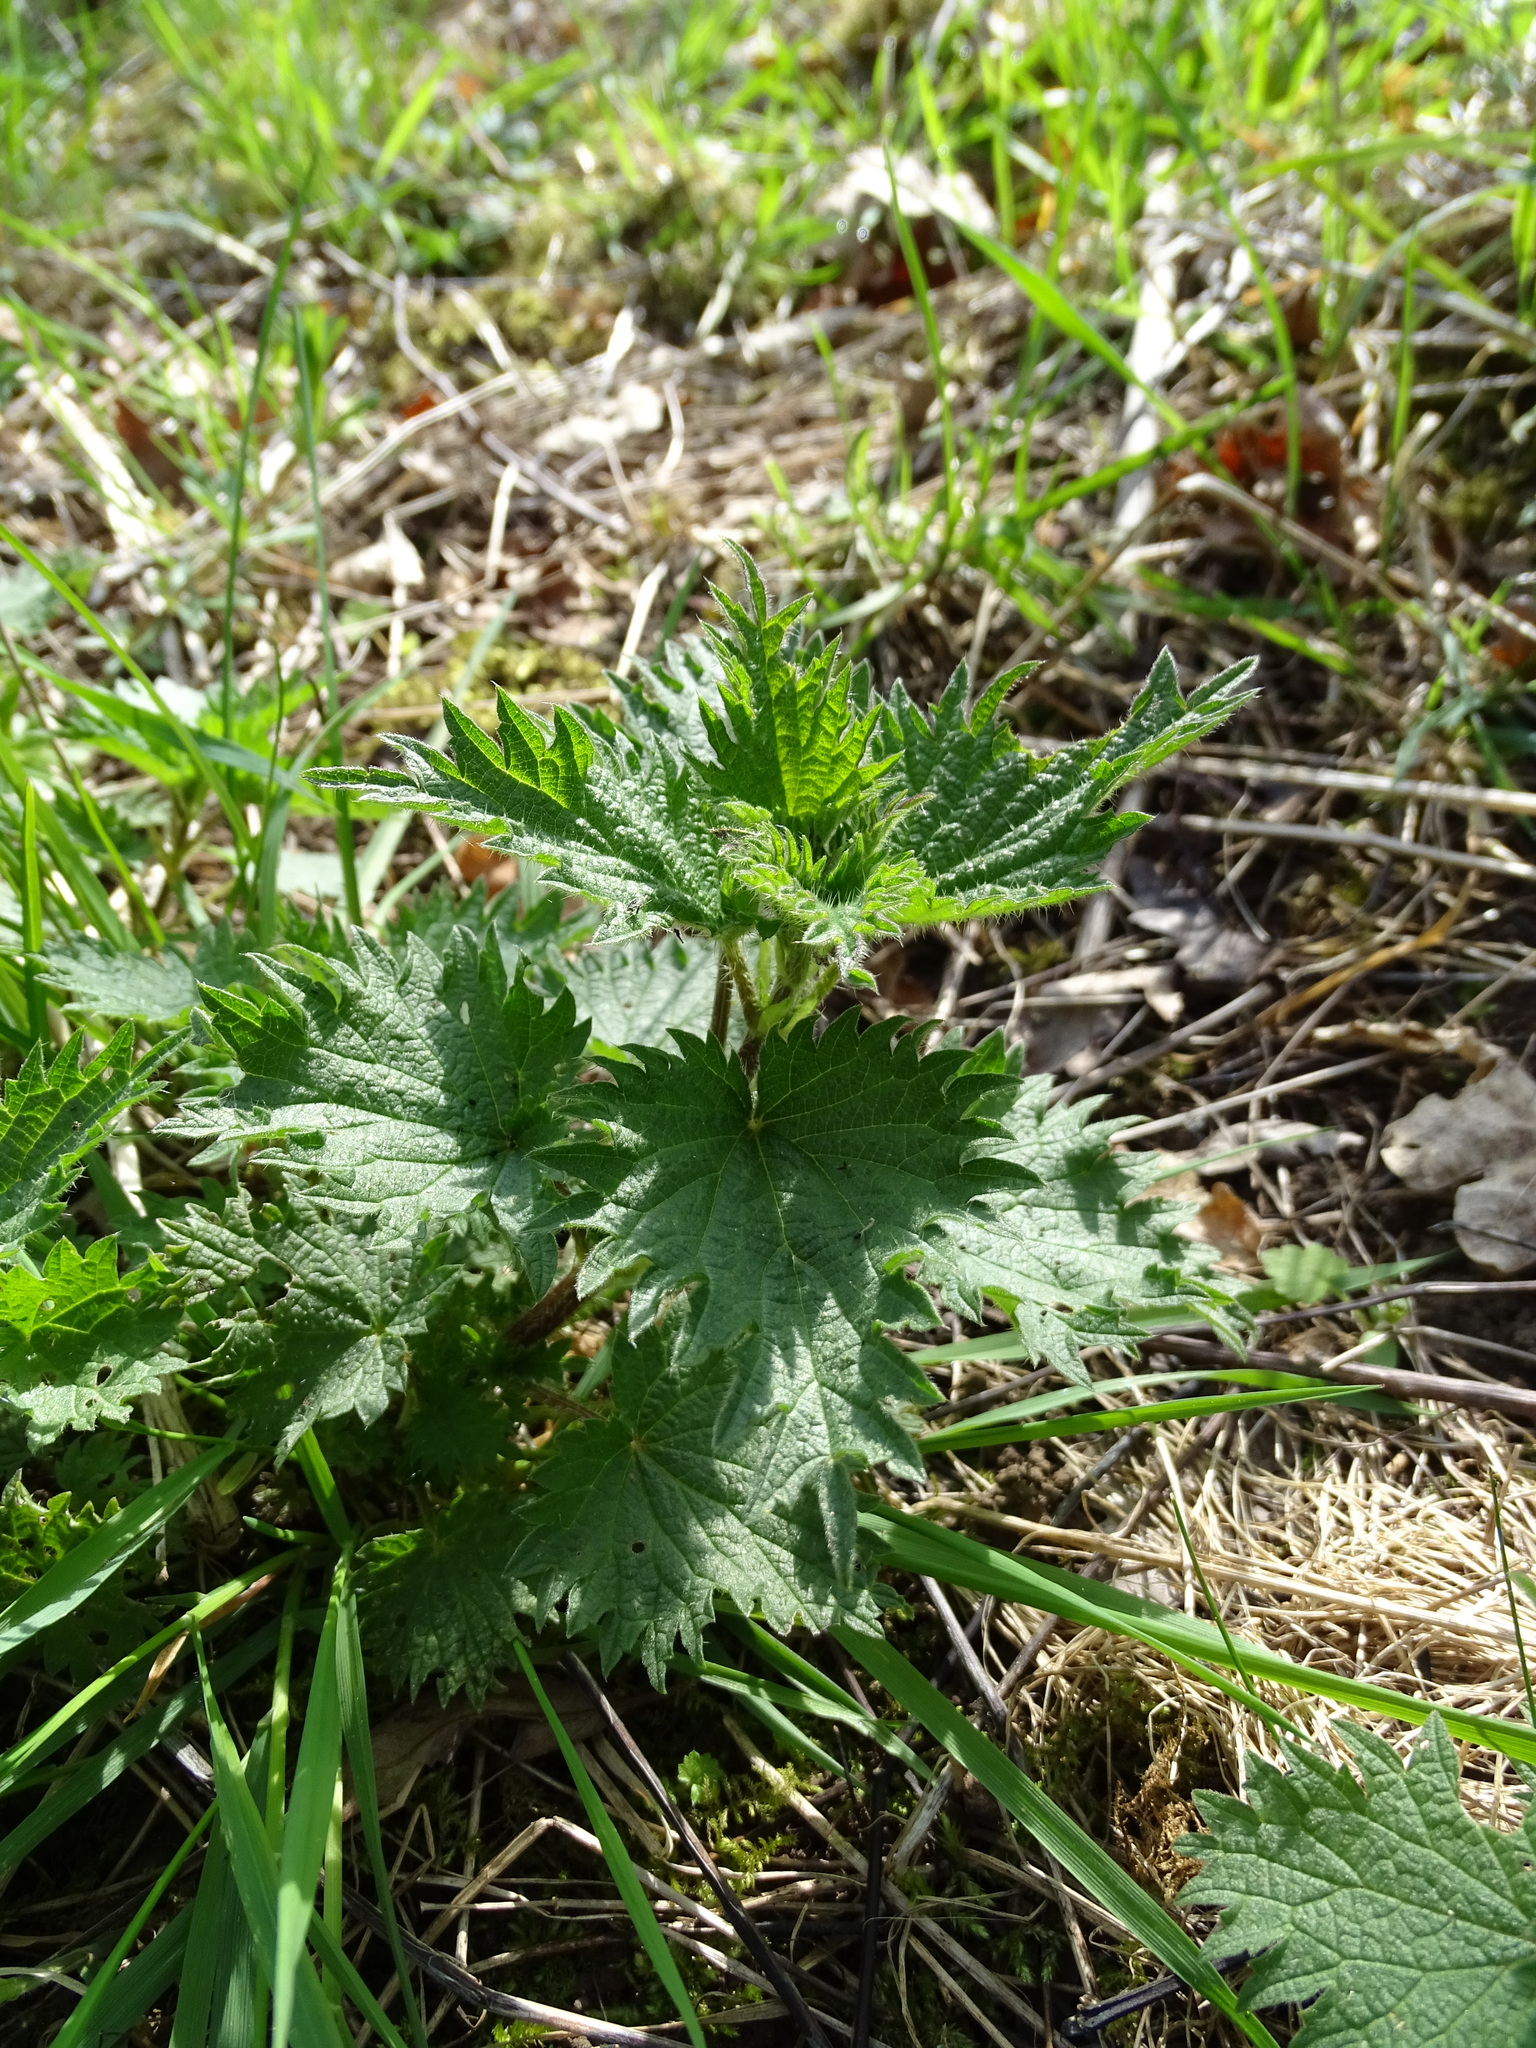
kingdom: Plantae
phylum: Tracheophyta
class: Magnoliopsida
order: Rosales
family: Urticaceae
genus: Urtica
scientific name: Urtica dioica
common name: Common nettle
